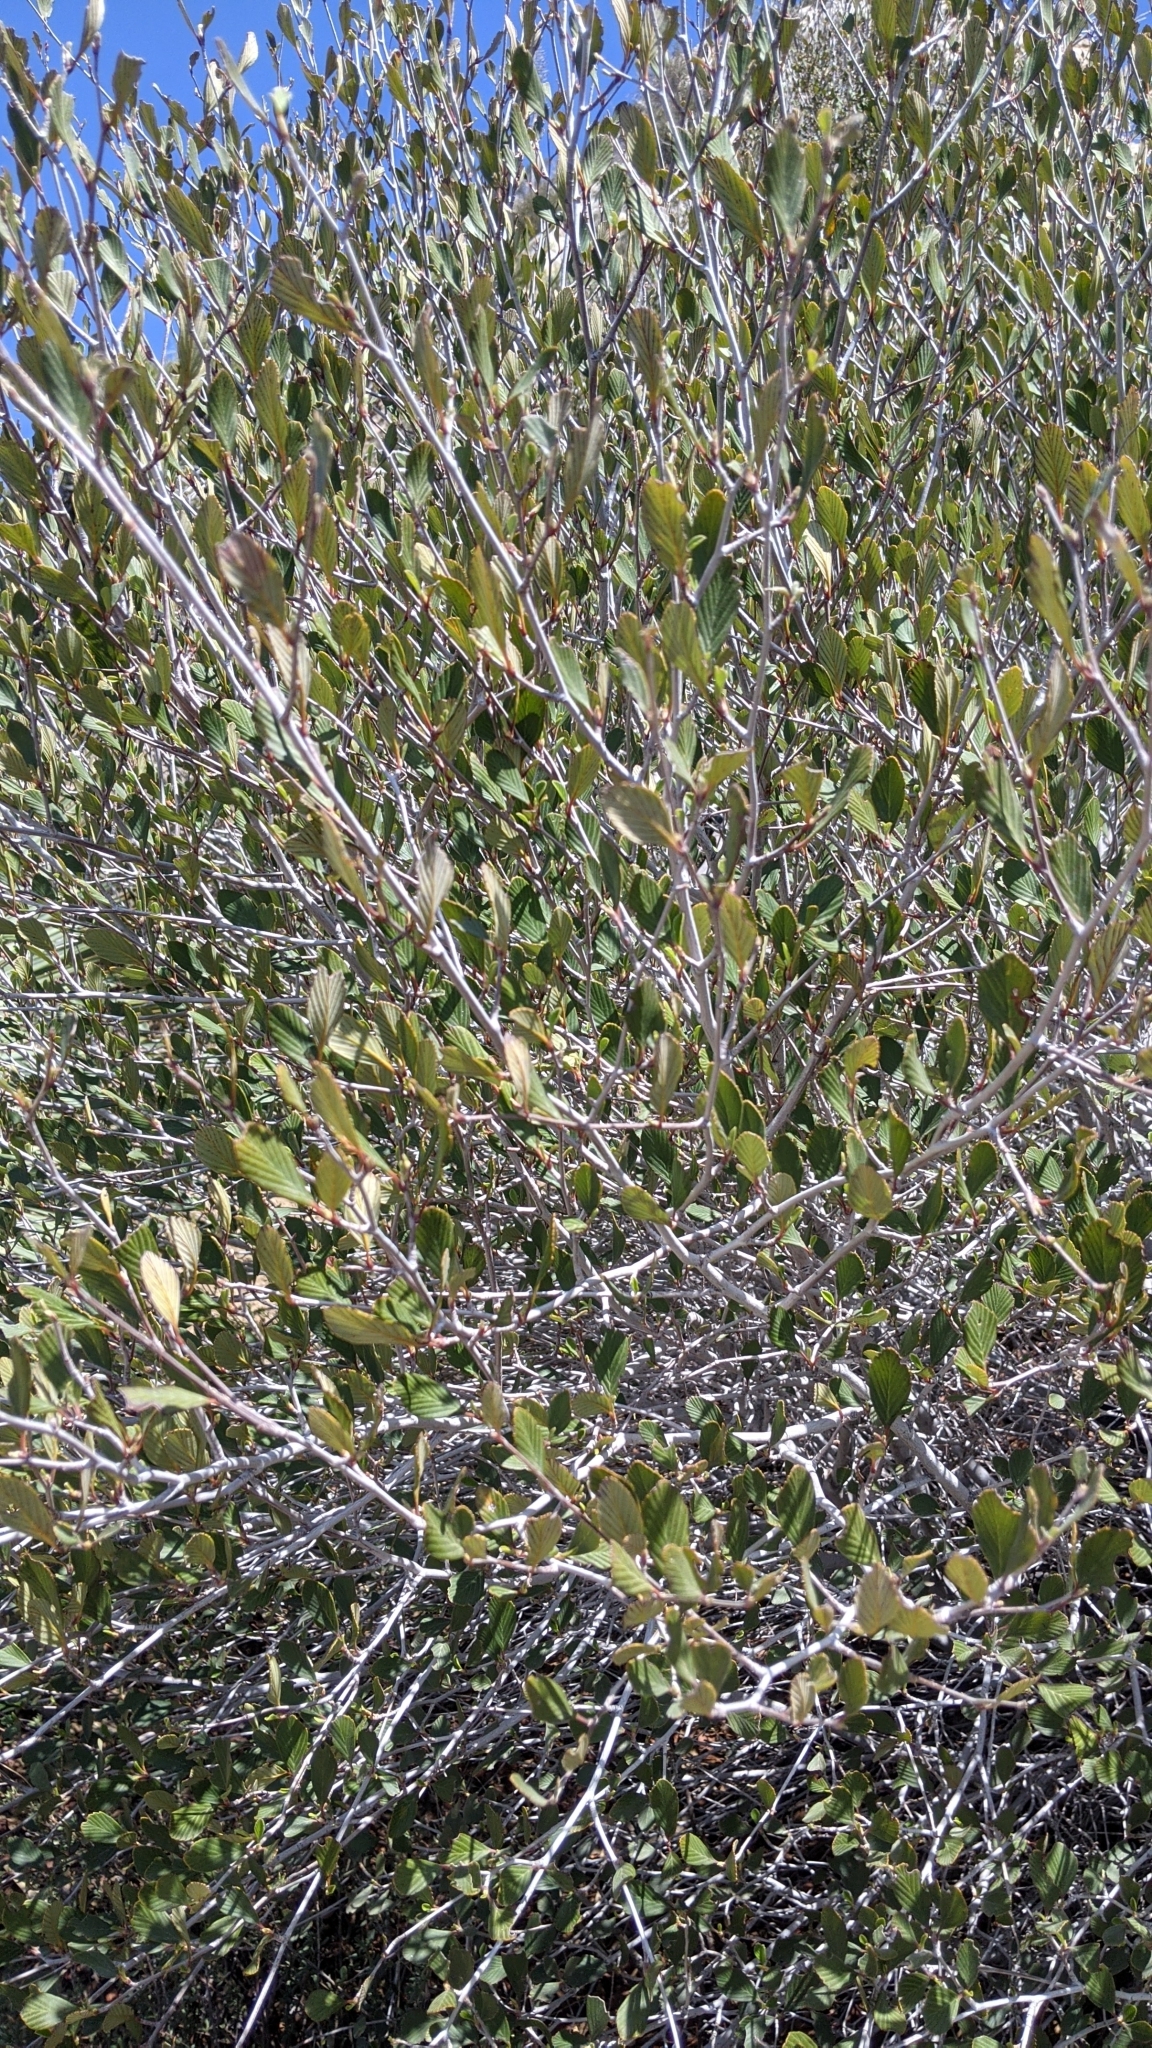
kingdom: Plantae
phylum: Tracheophyta
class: Magnoliopsida
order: Rosales
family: Rosaceae
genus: Cercocarpus
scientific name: Cercocarpus betuloides
